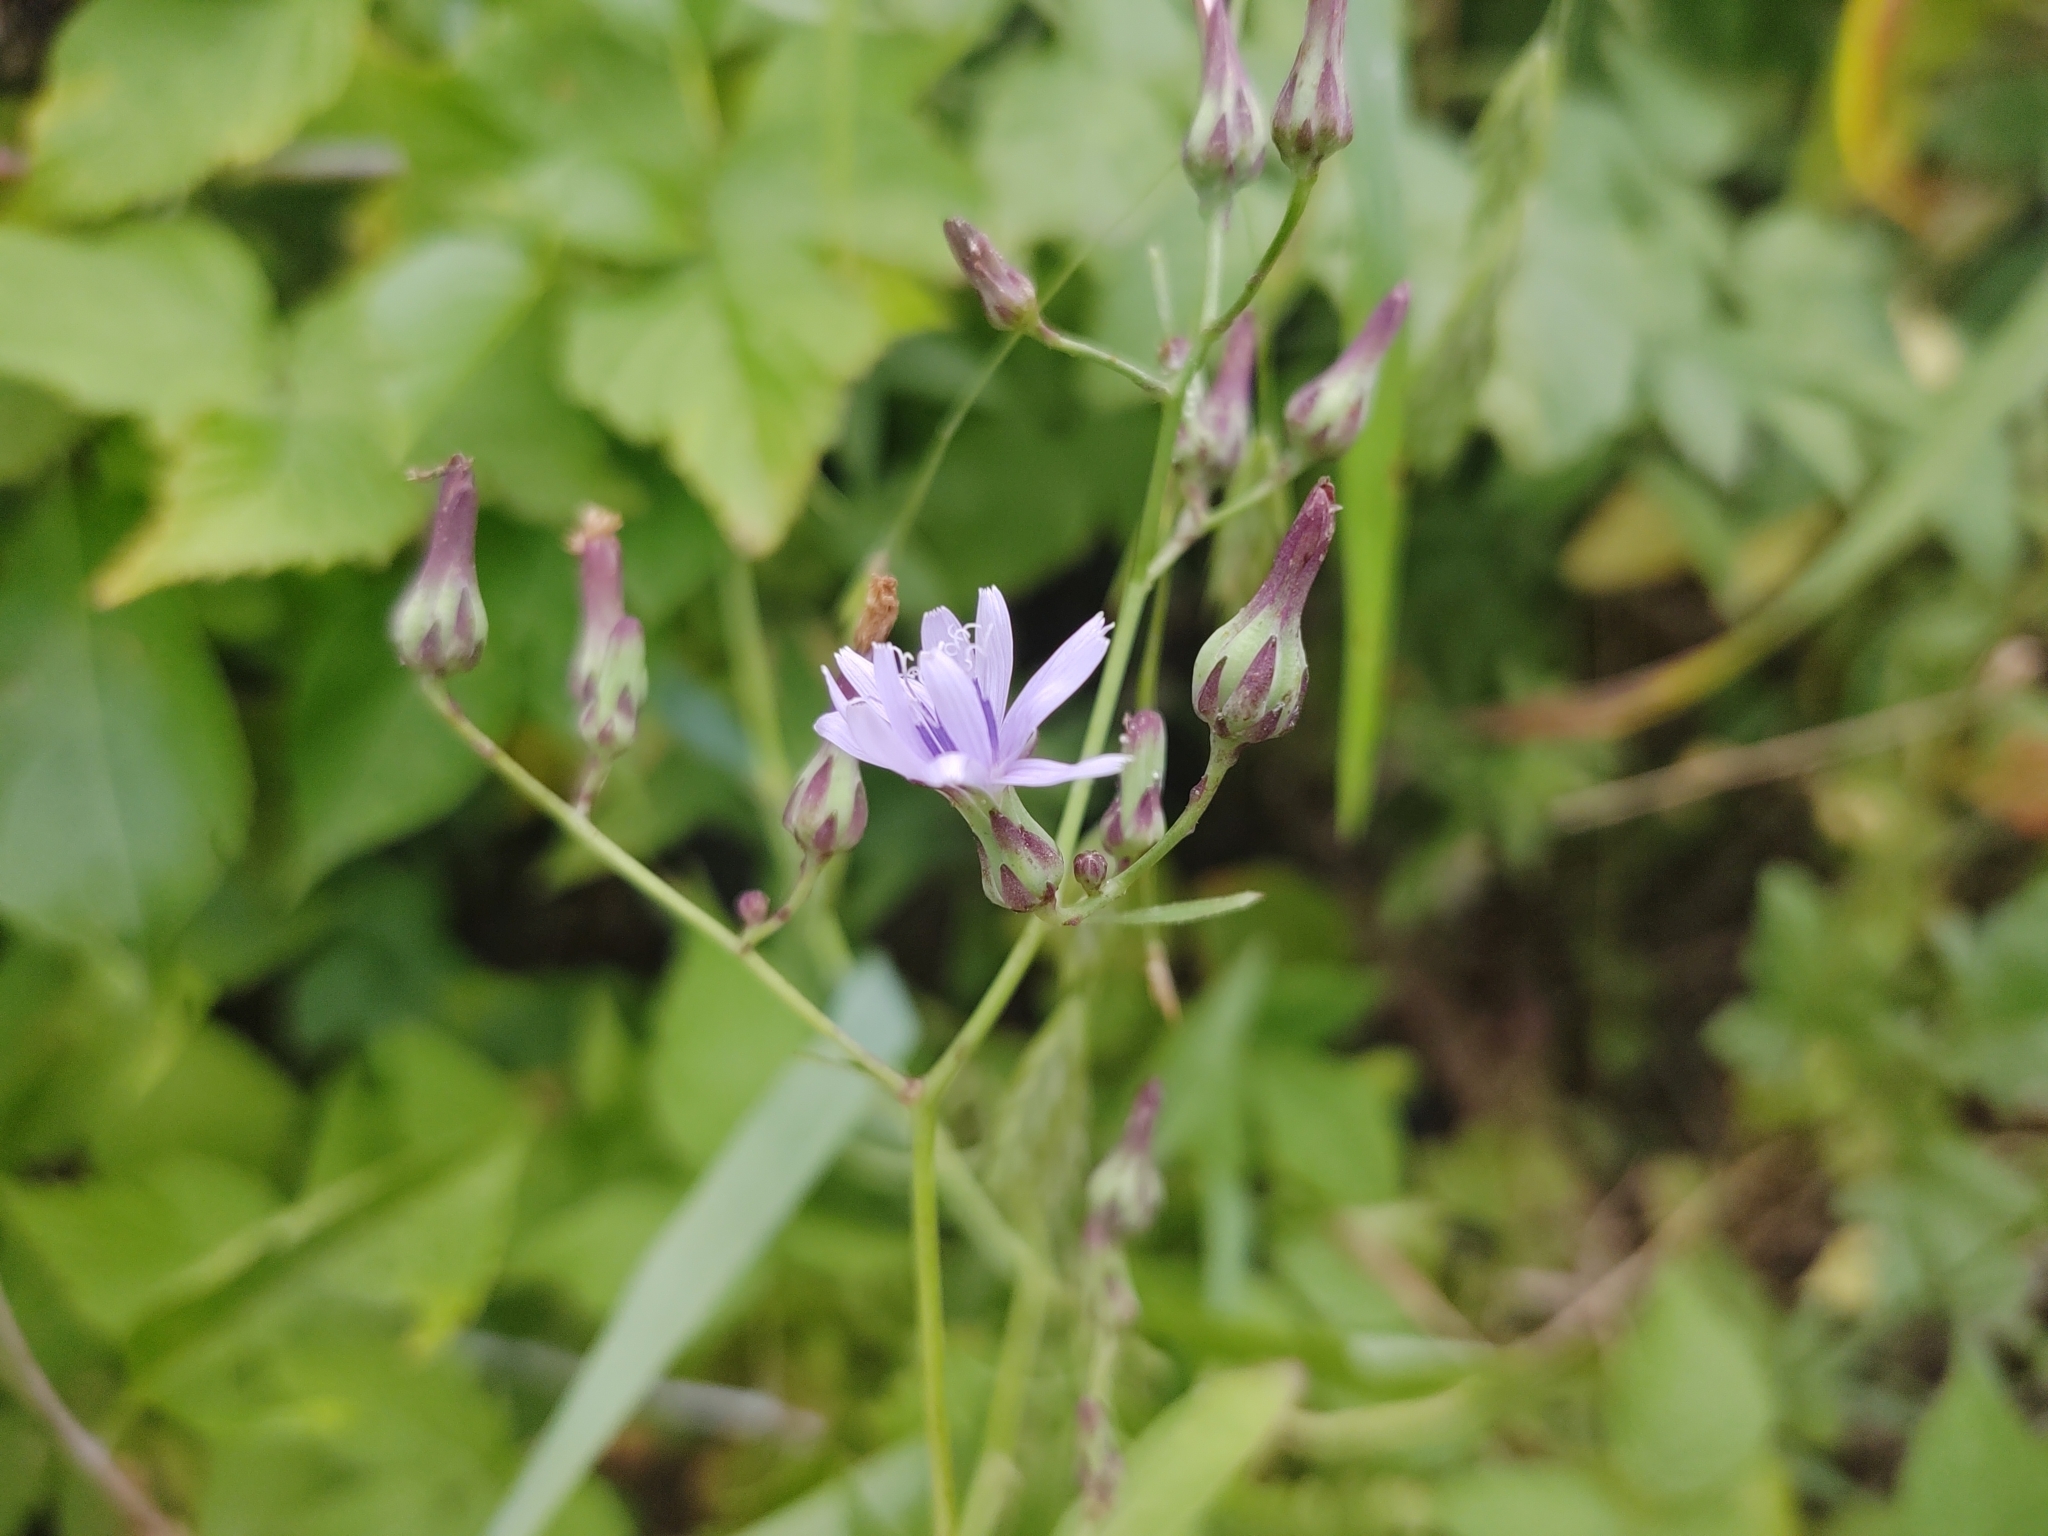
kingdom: Plantae
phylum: Tracheophyta
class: Magnoliopsida
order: Asterales
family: Asteraceae
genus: Lactuca
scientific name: Lactuca floridana
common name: Woodland lettuce
